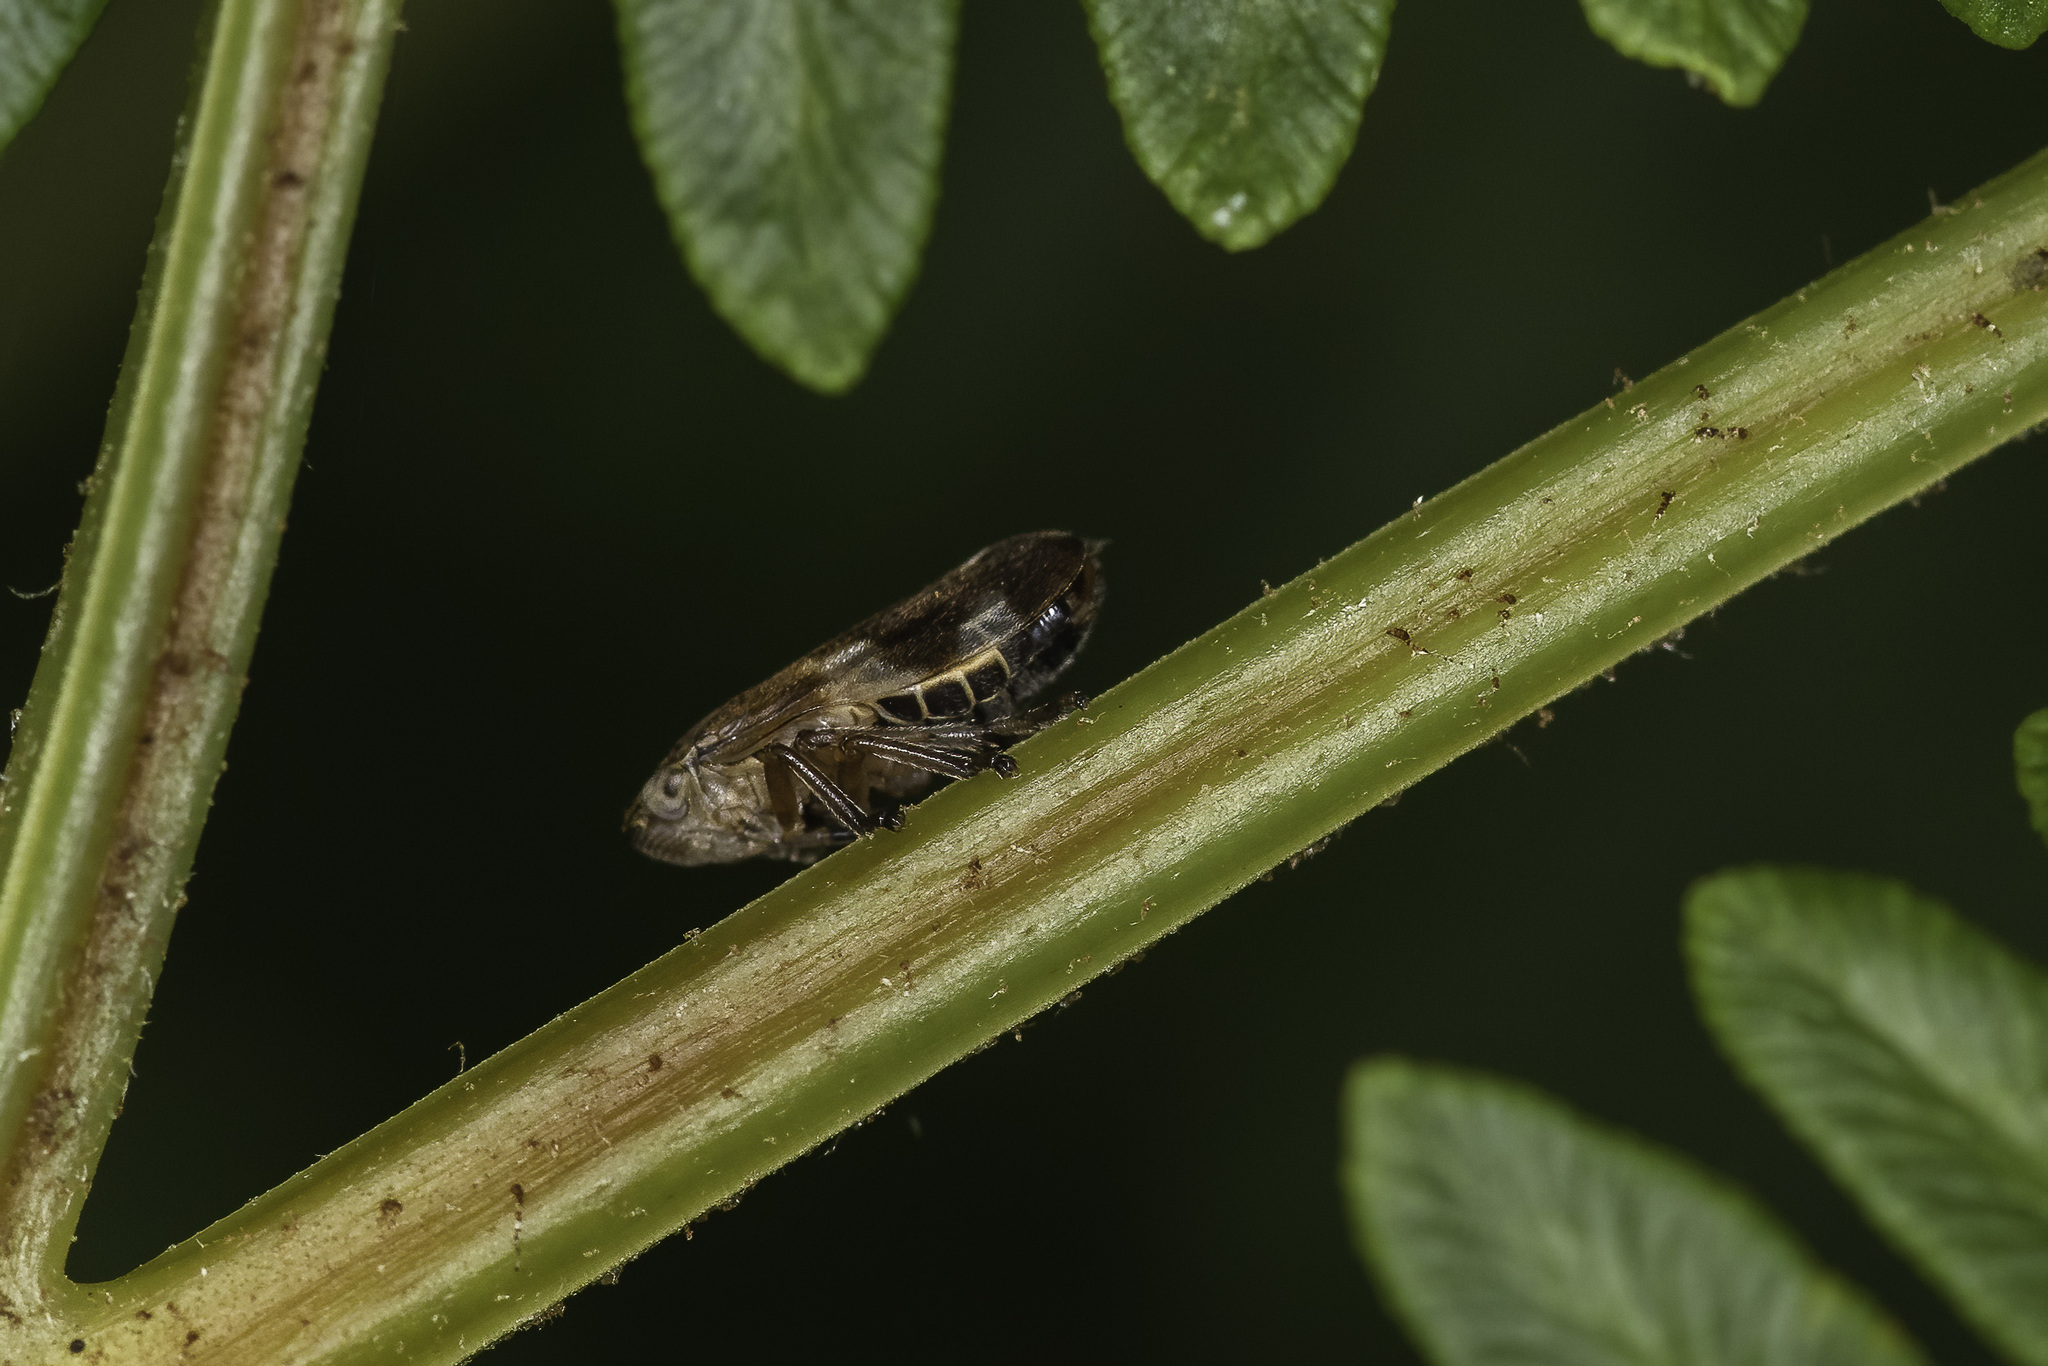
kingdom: Animalia
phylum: Arthropoda
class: Insecta
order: Hemiptera
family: Aphrophoridae
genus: Philaenus
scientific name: Philaenus spumarius
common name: Meadow spittlebug
